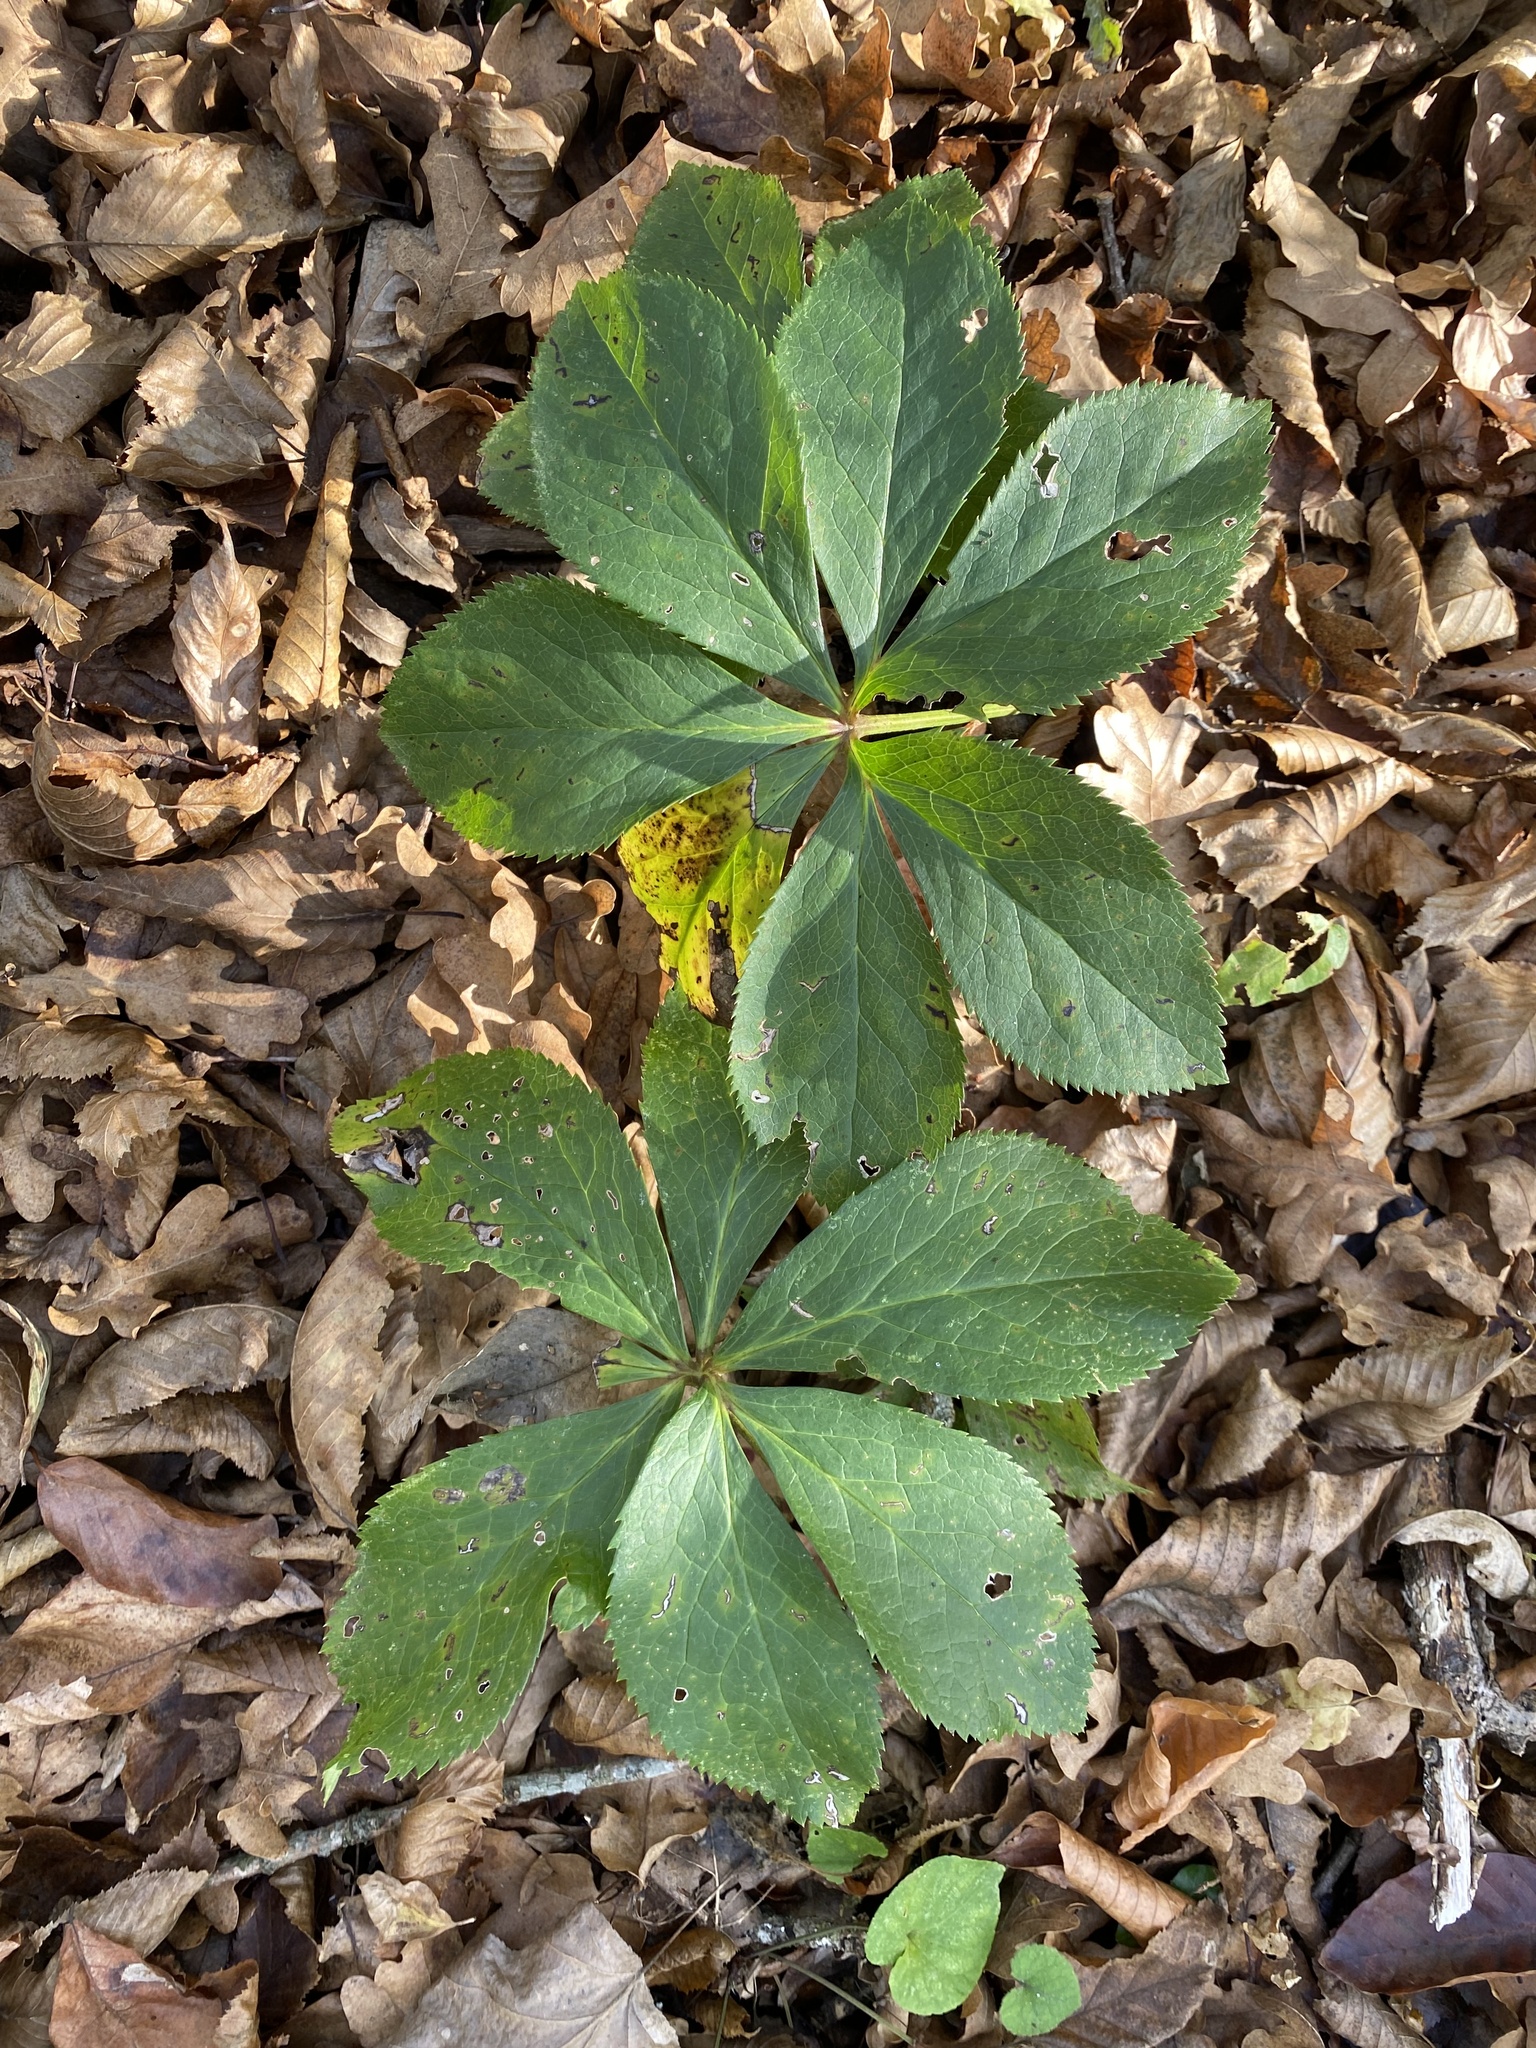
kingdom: Plantae
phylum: Tracheophyta
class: Magnoliopsida
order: Ranunculales
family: Ranunculaceae
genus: Helleborus
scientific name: Helleborus orientalis
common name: Lenten-rose
